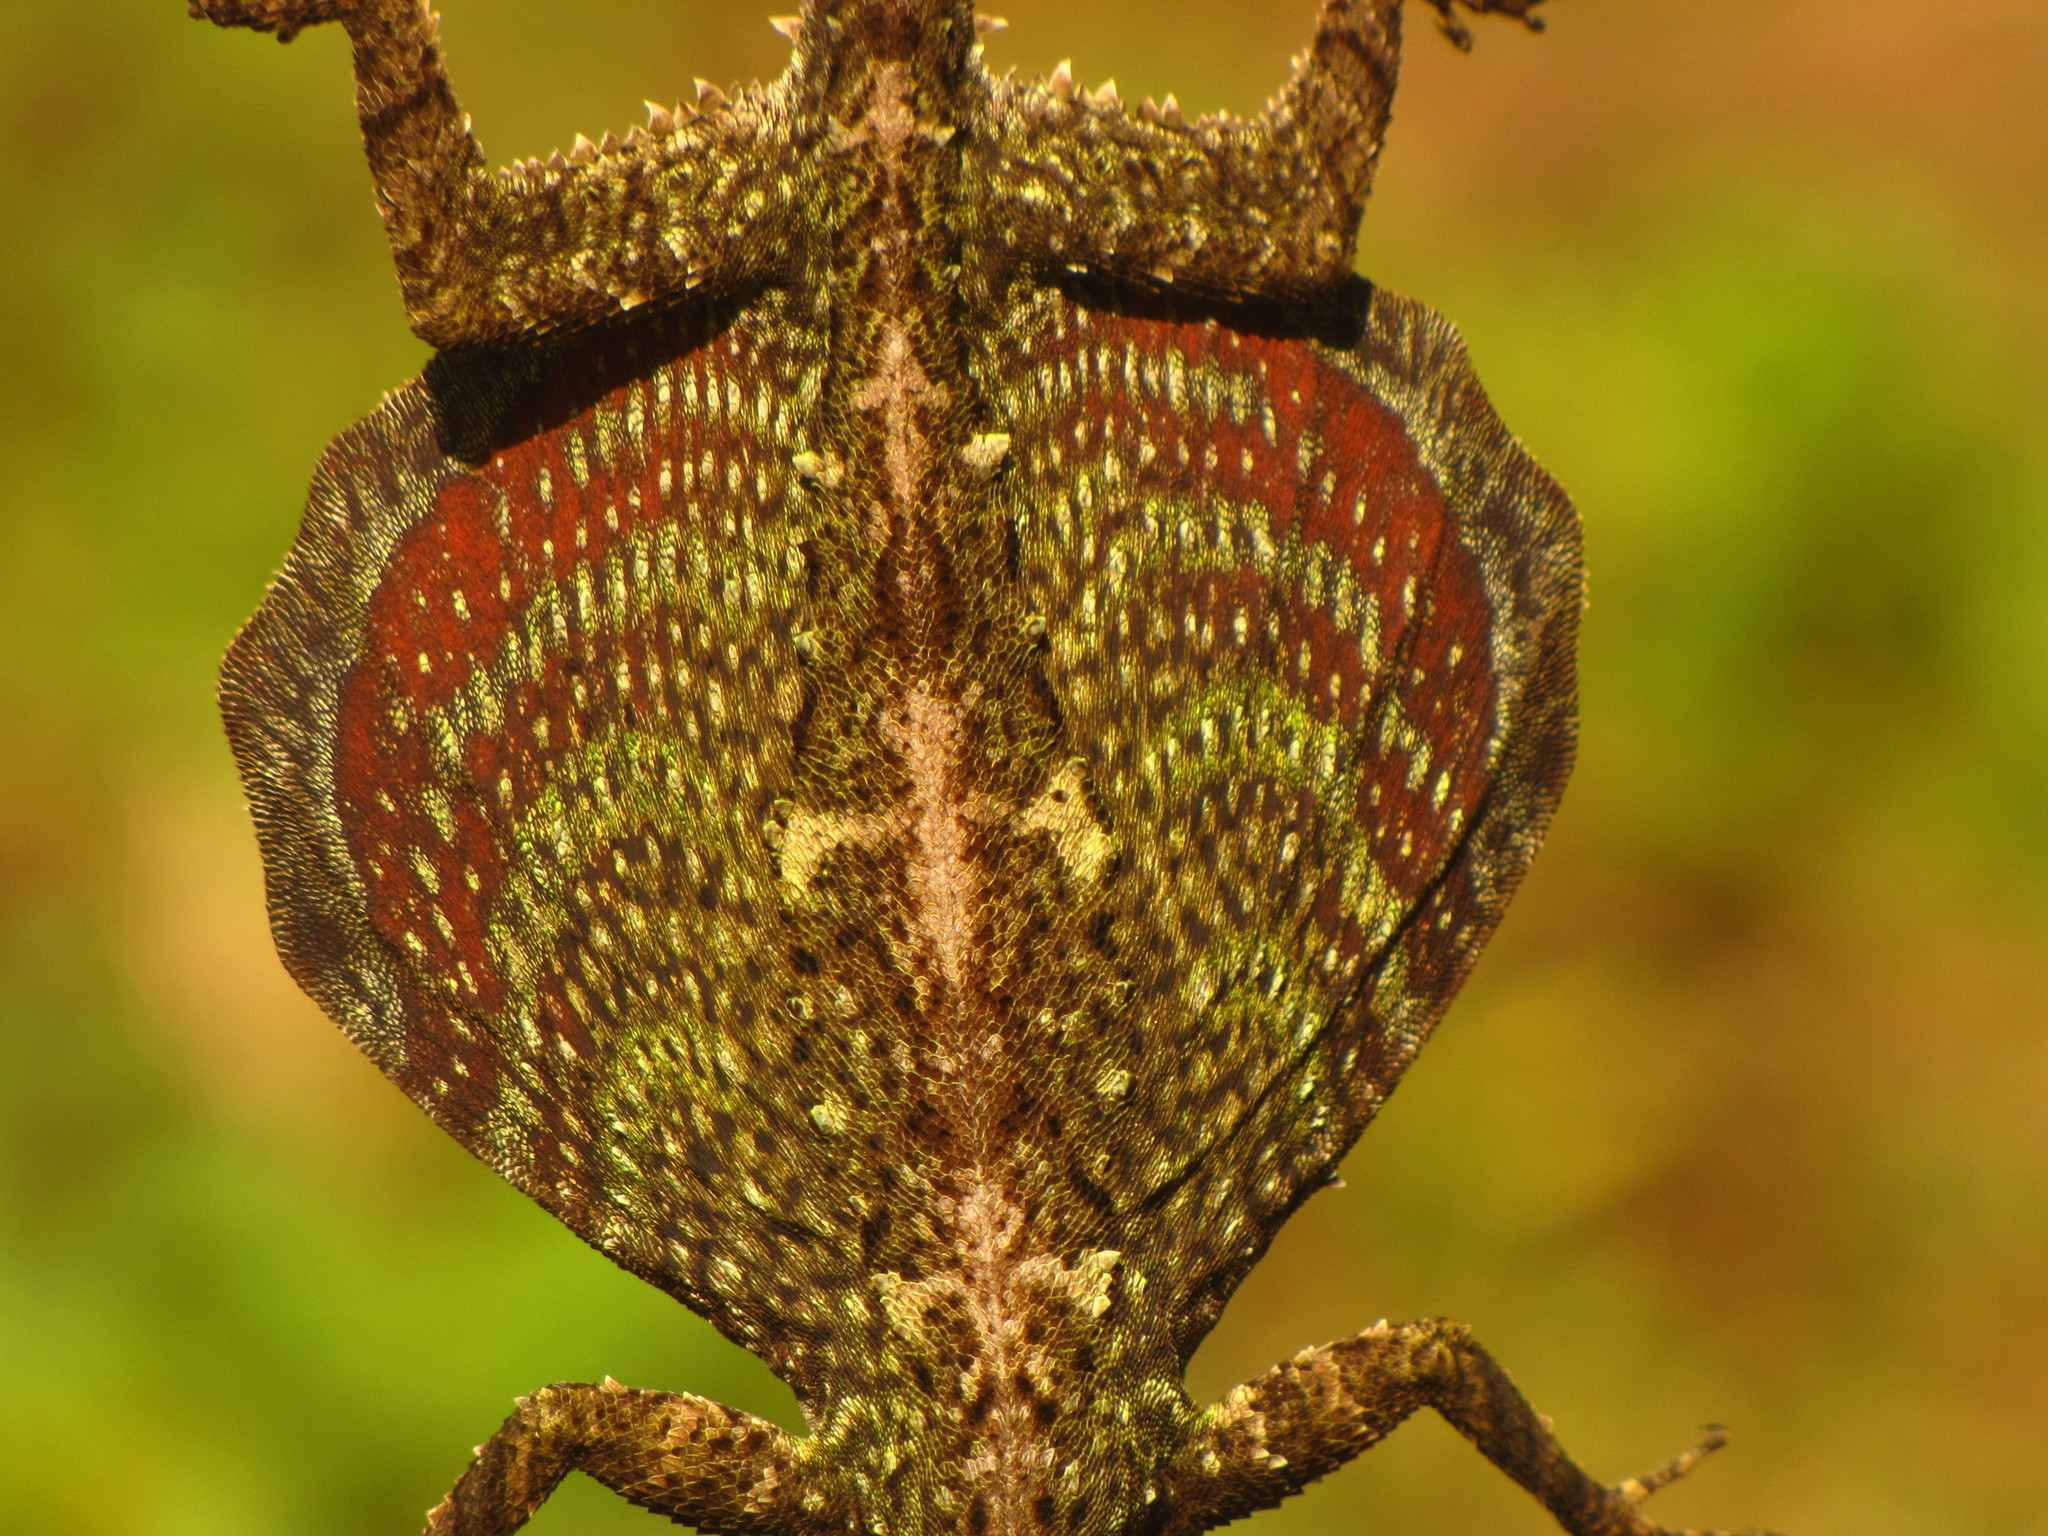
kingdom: Animalia
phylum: Chordata
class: Squamata
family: Agamidae
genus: Draco
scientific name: Draco norvillii
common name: Norvill's flying lizard
